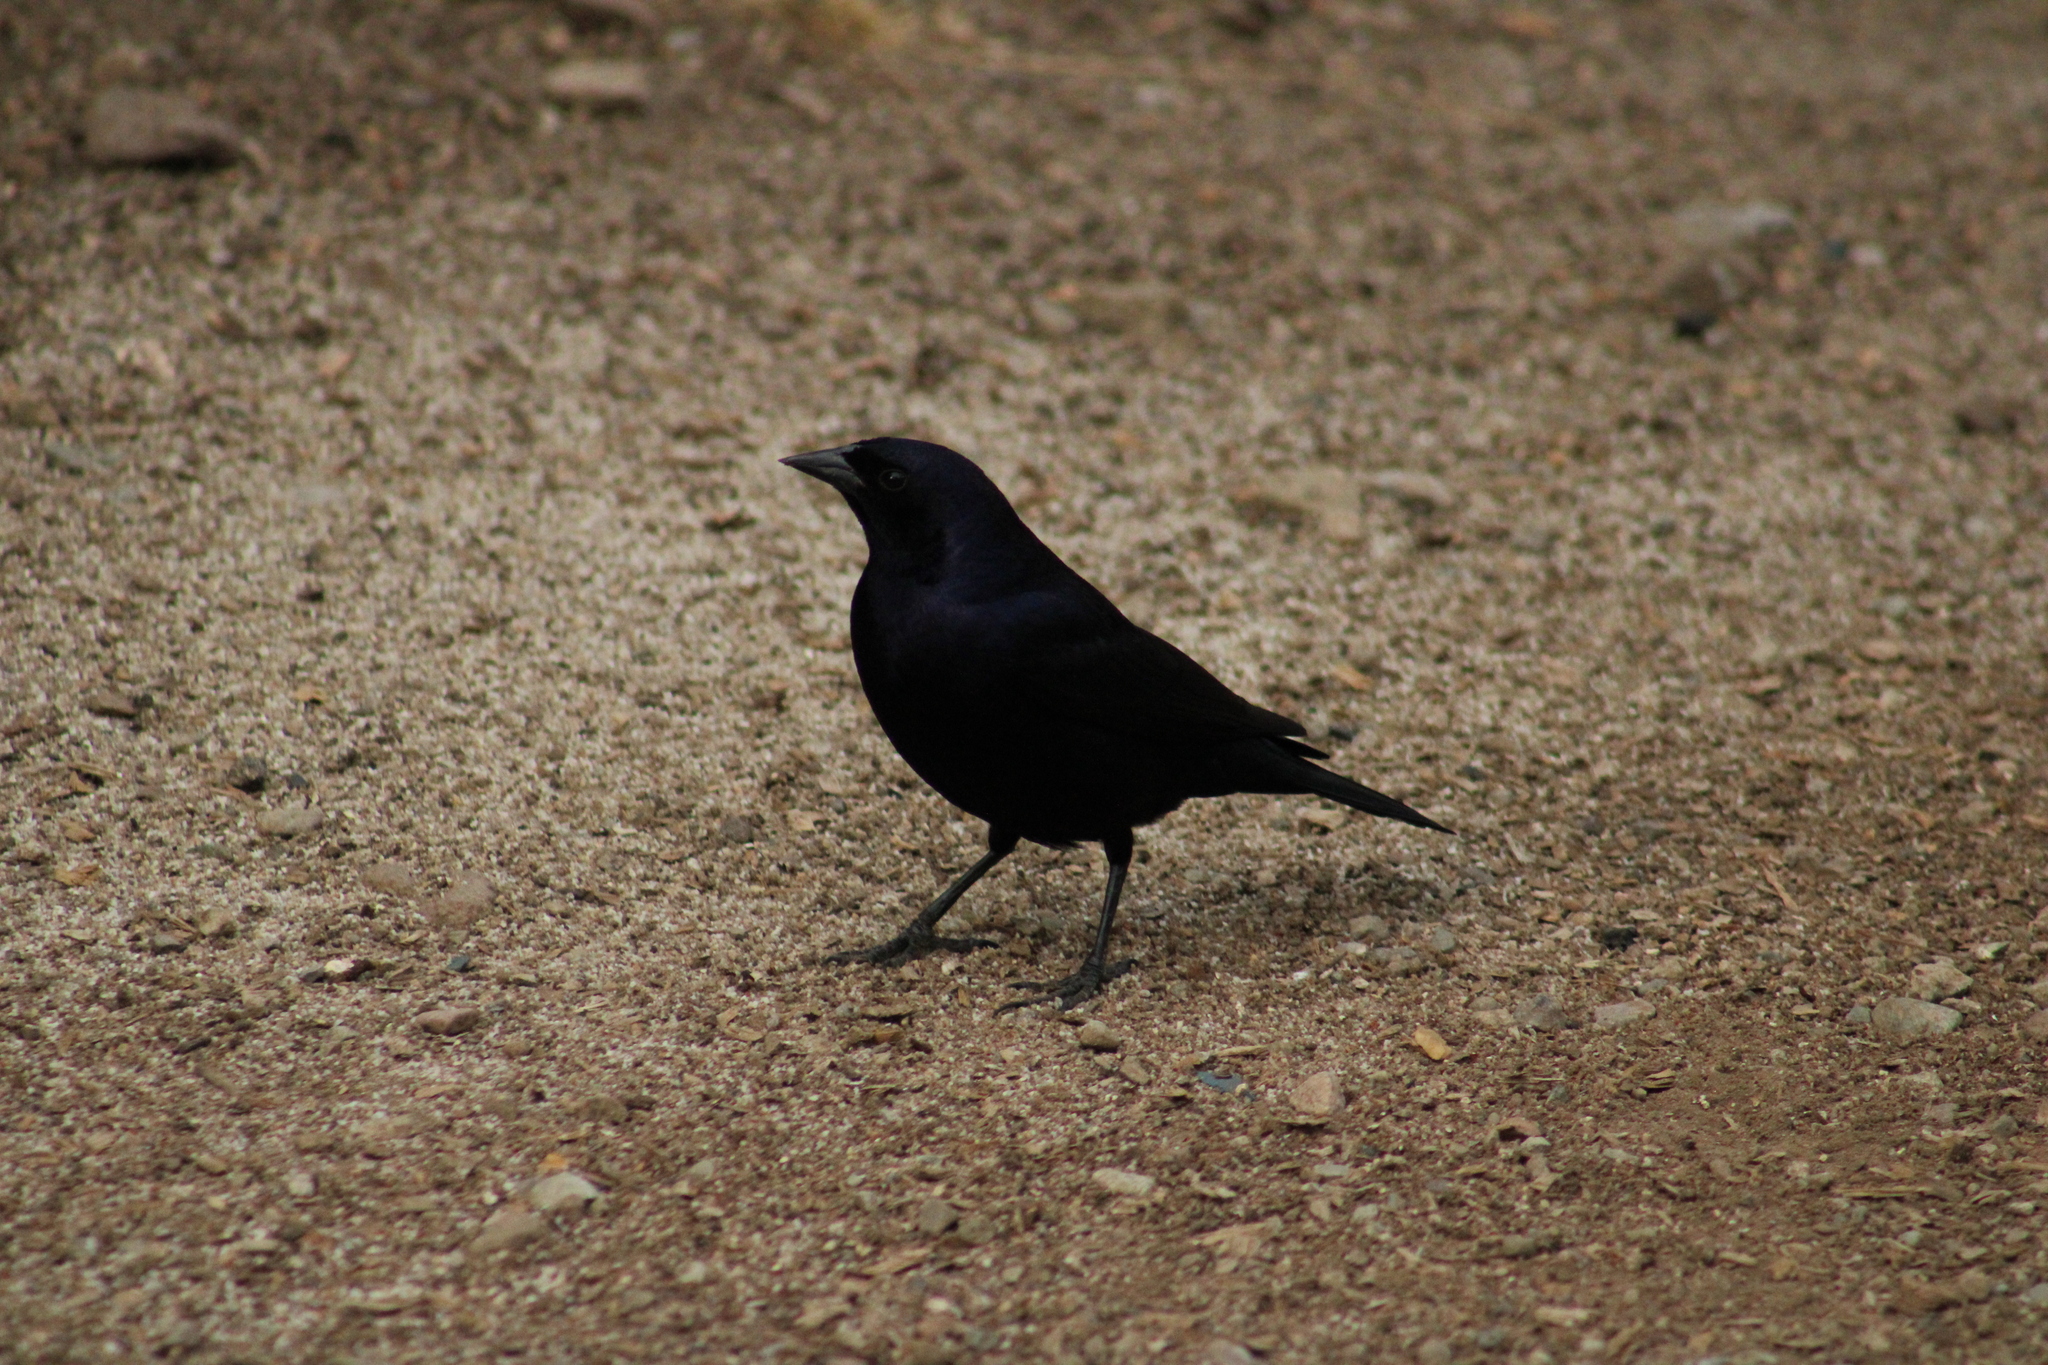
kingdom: Animalia
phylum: Chordata
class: Aves
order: Passeriformes
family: Icteridae
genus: Molothrus
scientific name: Molothrus bonariensis
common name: Shiny cowbird
